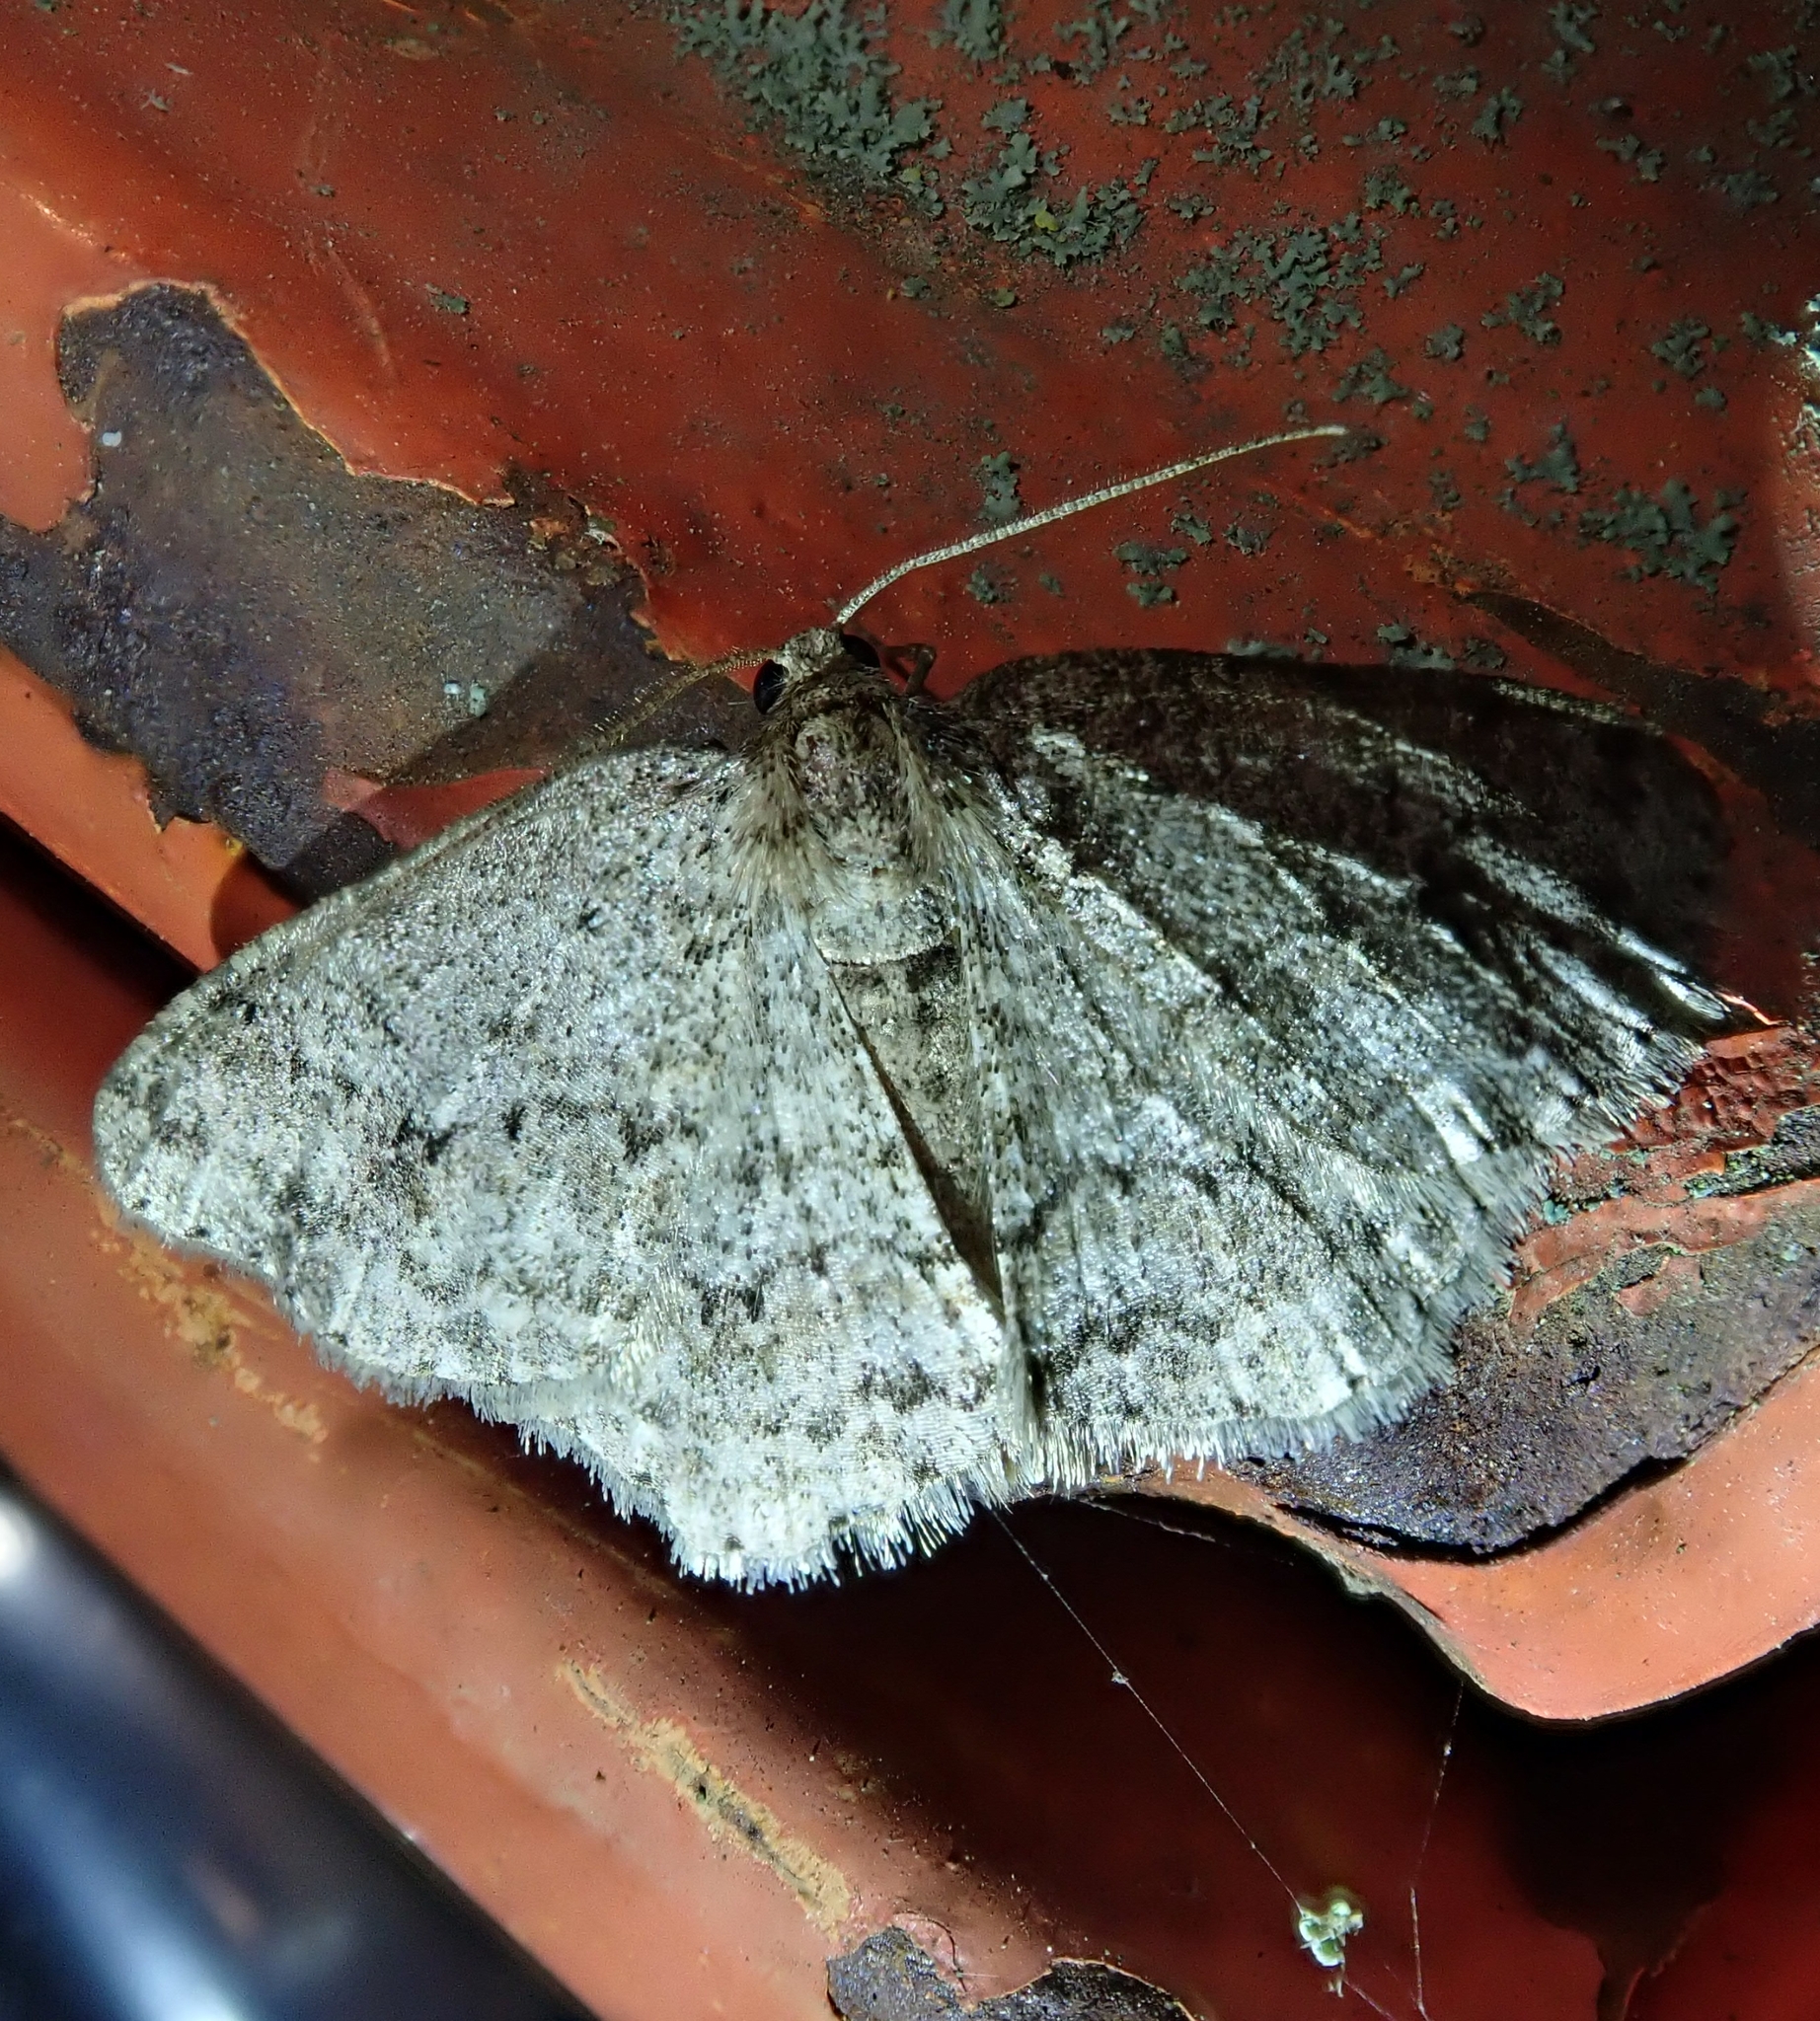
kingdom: Animalia
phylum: Arthropoda
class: Insecta
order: Lepidoptera
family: Geometridae
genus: Ectropis
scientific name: Ectropis crepuscularia
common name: Engrailed
